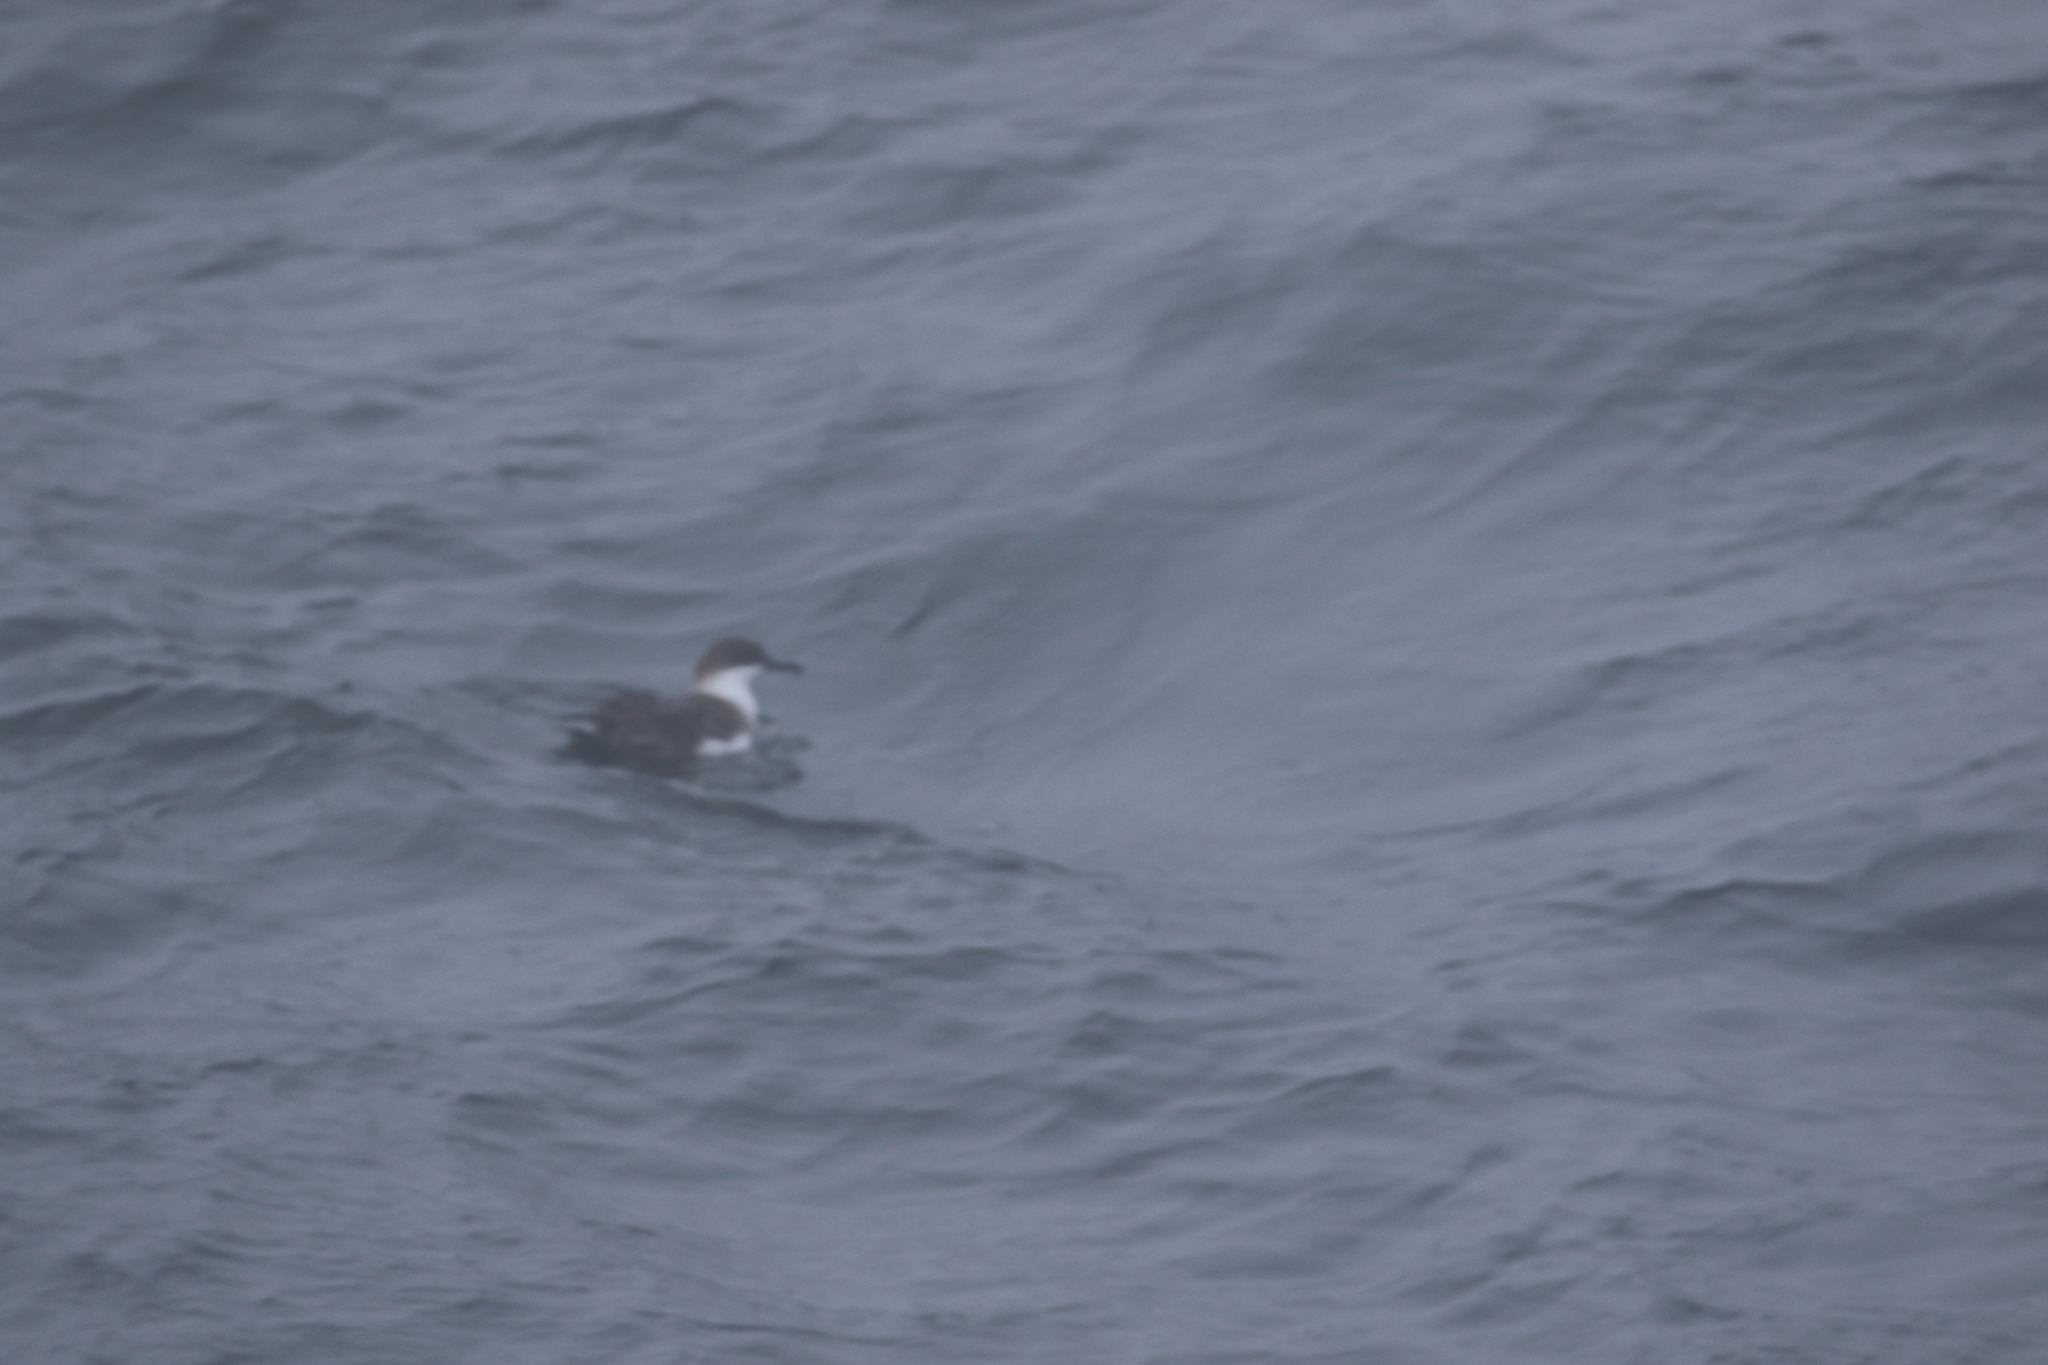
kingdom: Animalia
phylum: Chordata
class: Aves
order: Procellariiformes
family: Procellariidae
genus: Puffinus
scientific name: Puffinus gravis
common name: Great shearwater
